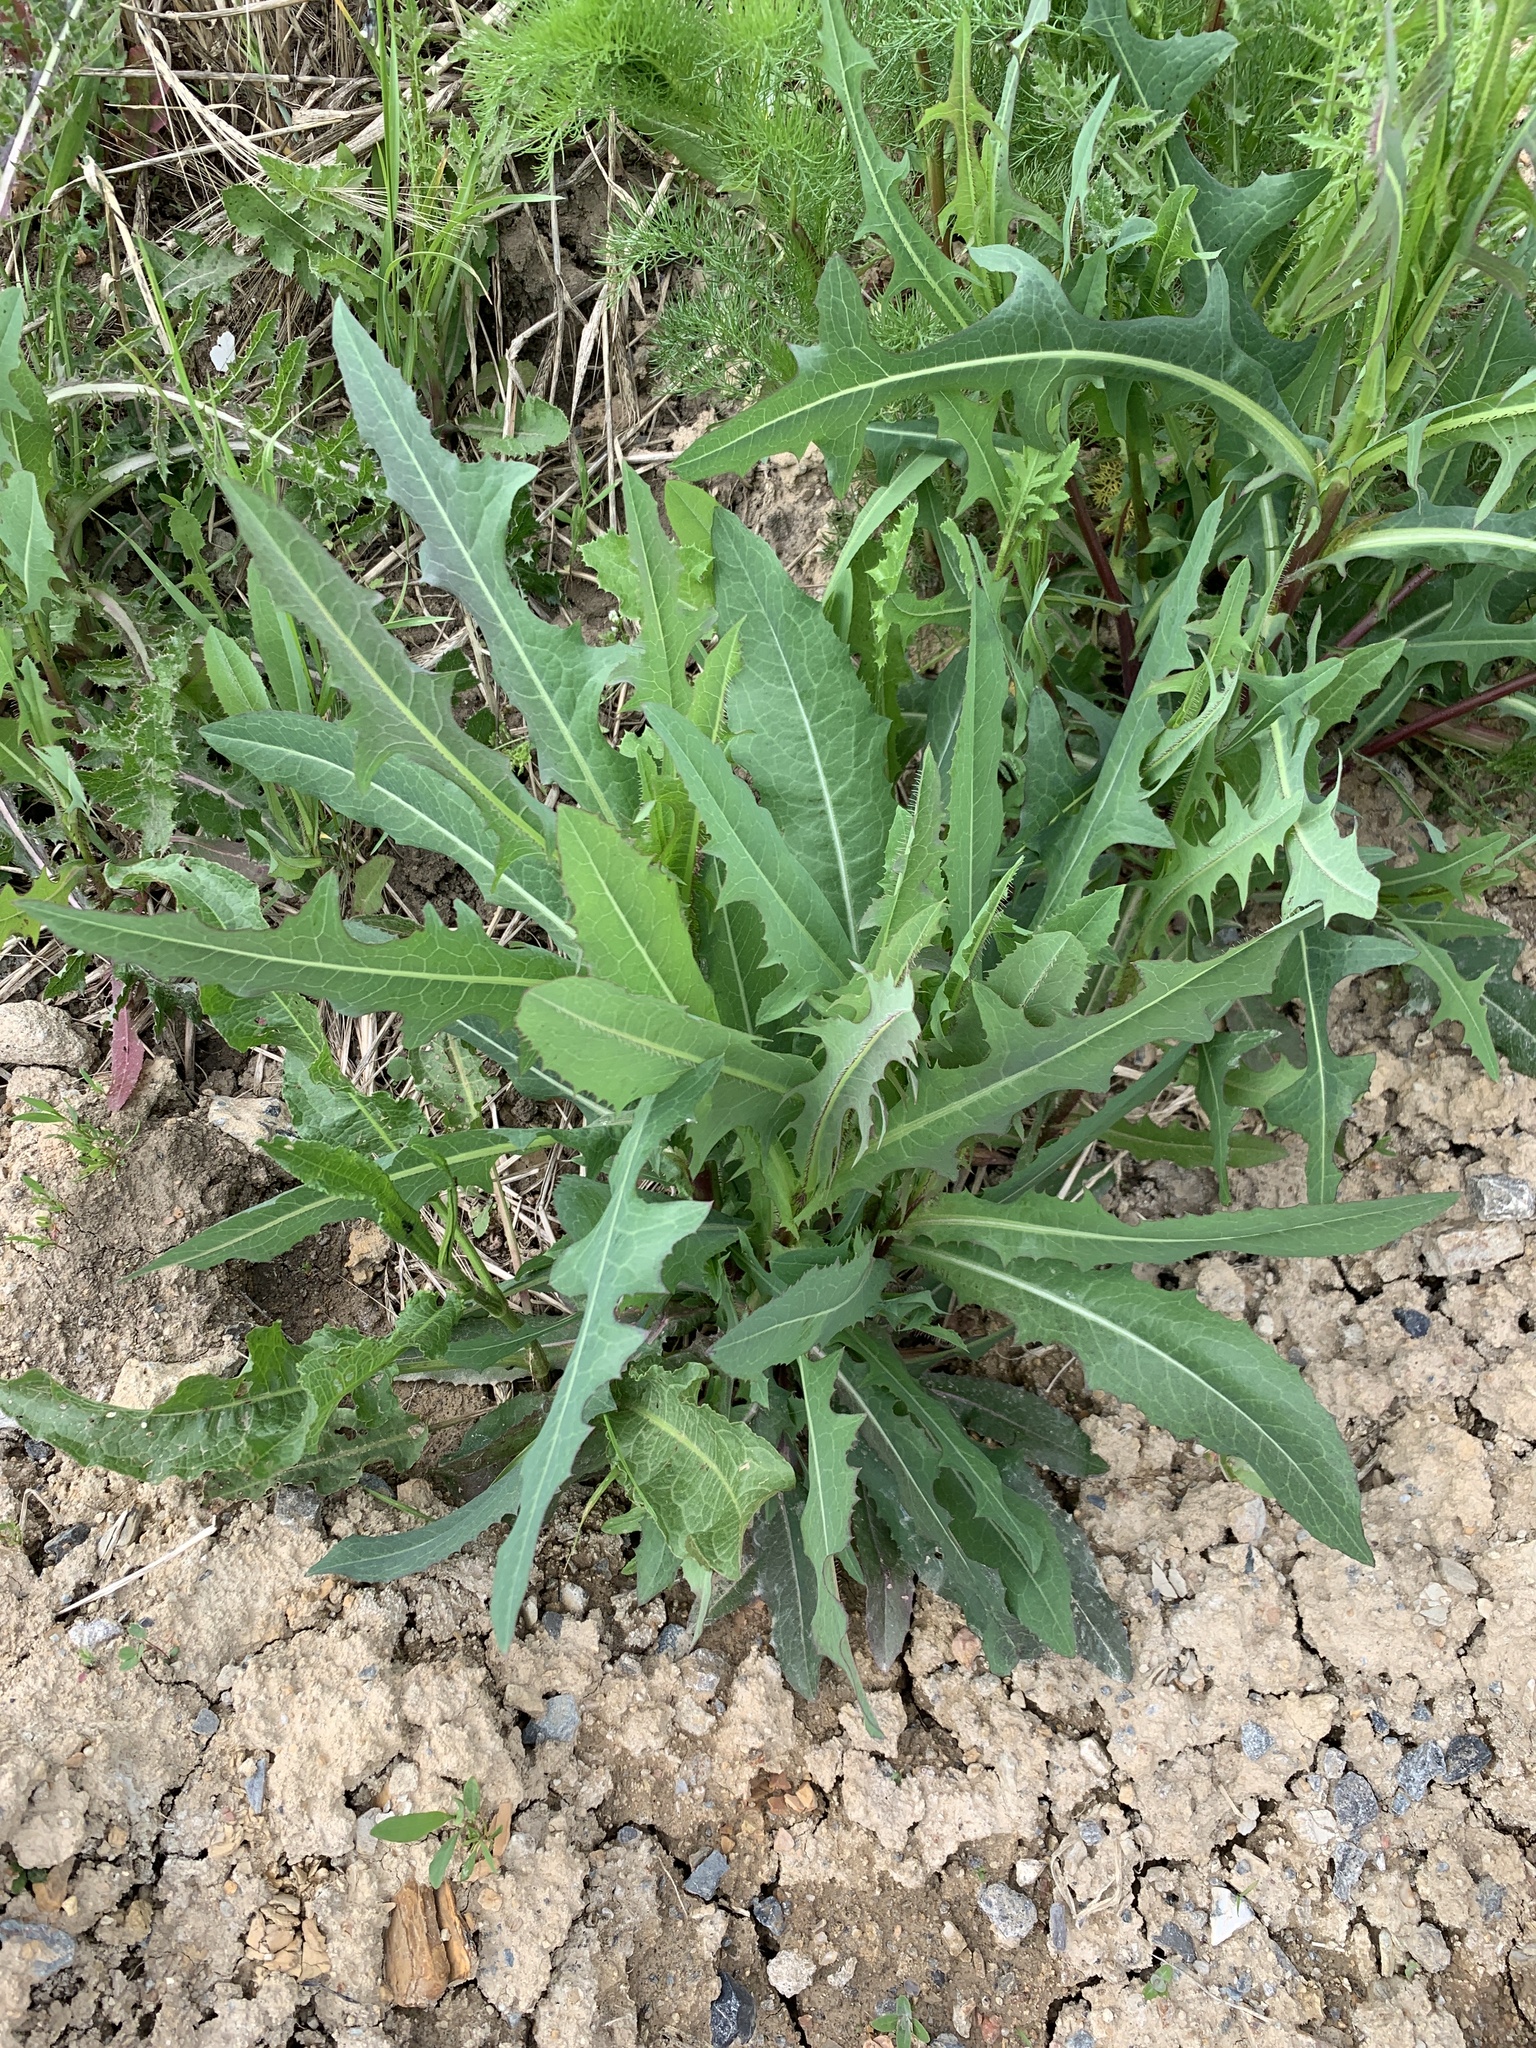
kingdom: Plantae
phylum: Tracheophyta
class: Magnoliopsida
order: Asterales
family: Asteraceae
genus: Lactuca
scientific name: Lactuca serriola
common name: Prickly lettuce
